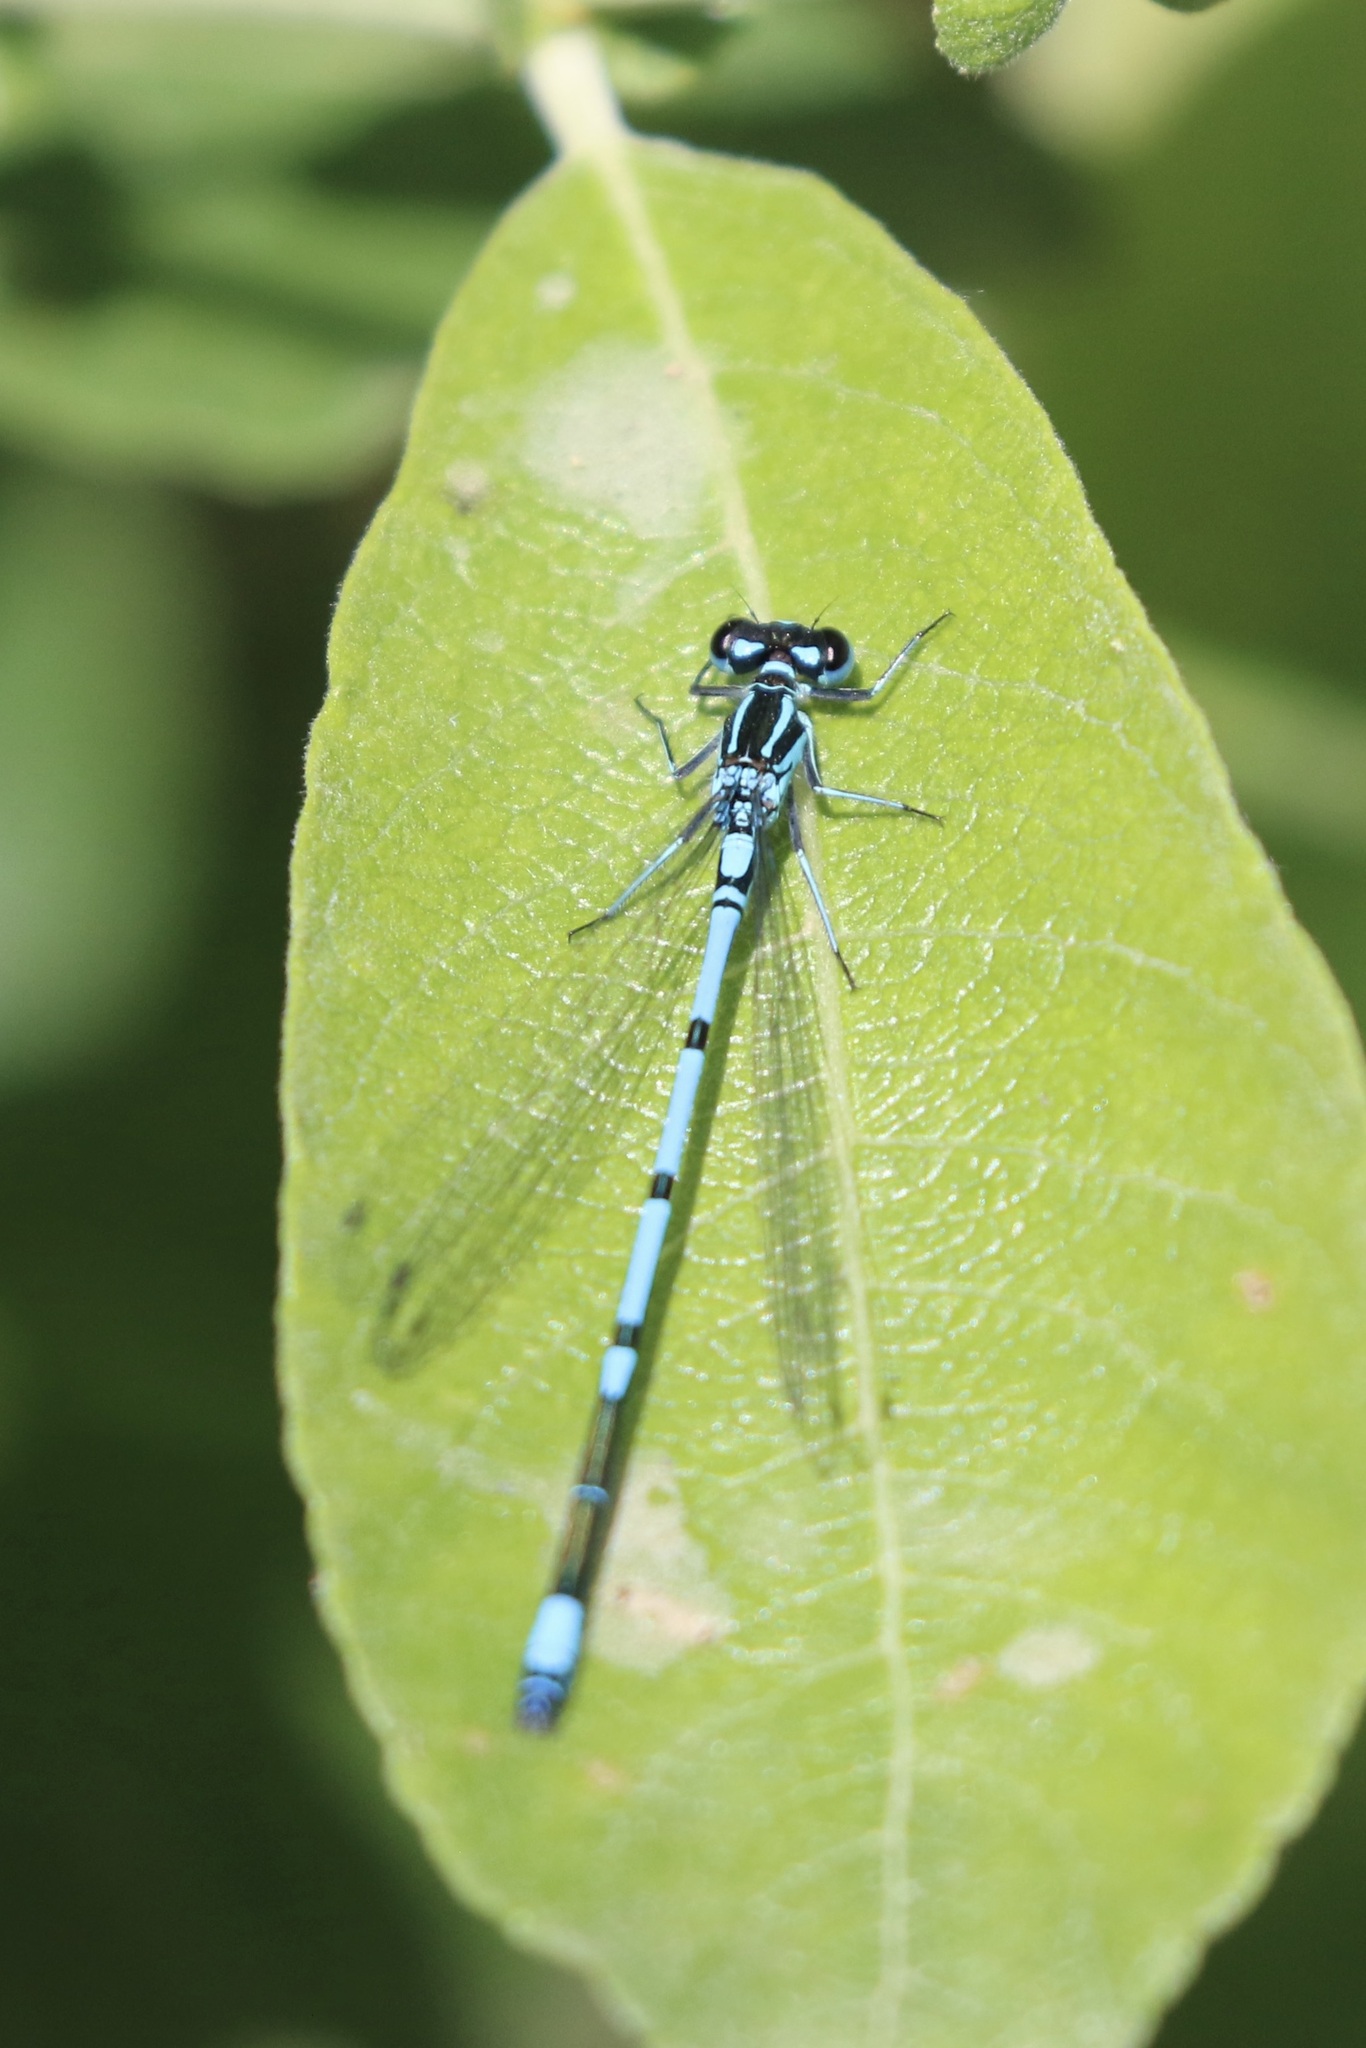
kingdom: Animalia
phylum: Arthropoda
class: Insecta
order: Odonata
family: Coenagrionidae
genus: Coenagrion
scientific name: Coenagrion puella
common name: Azure damselfly
